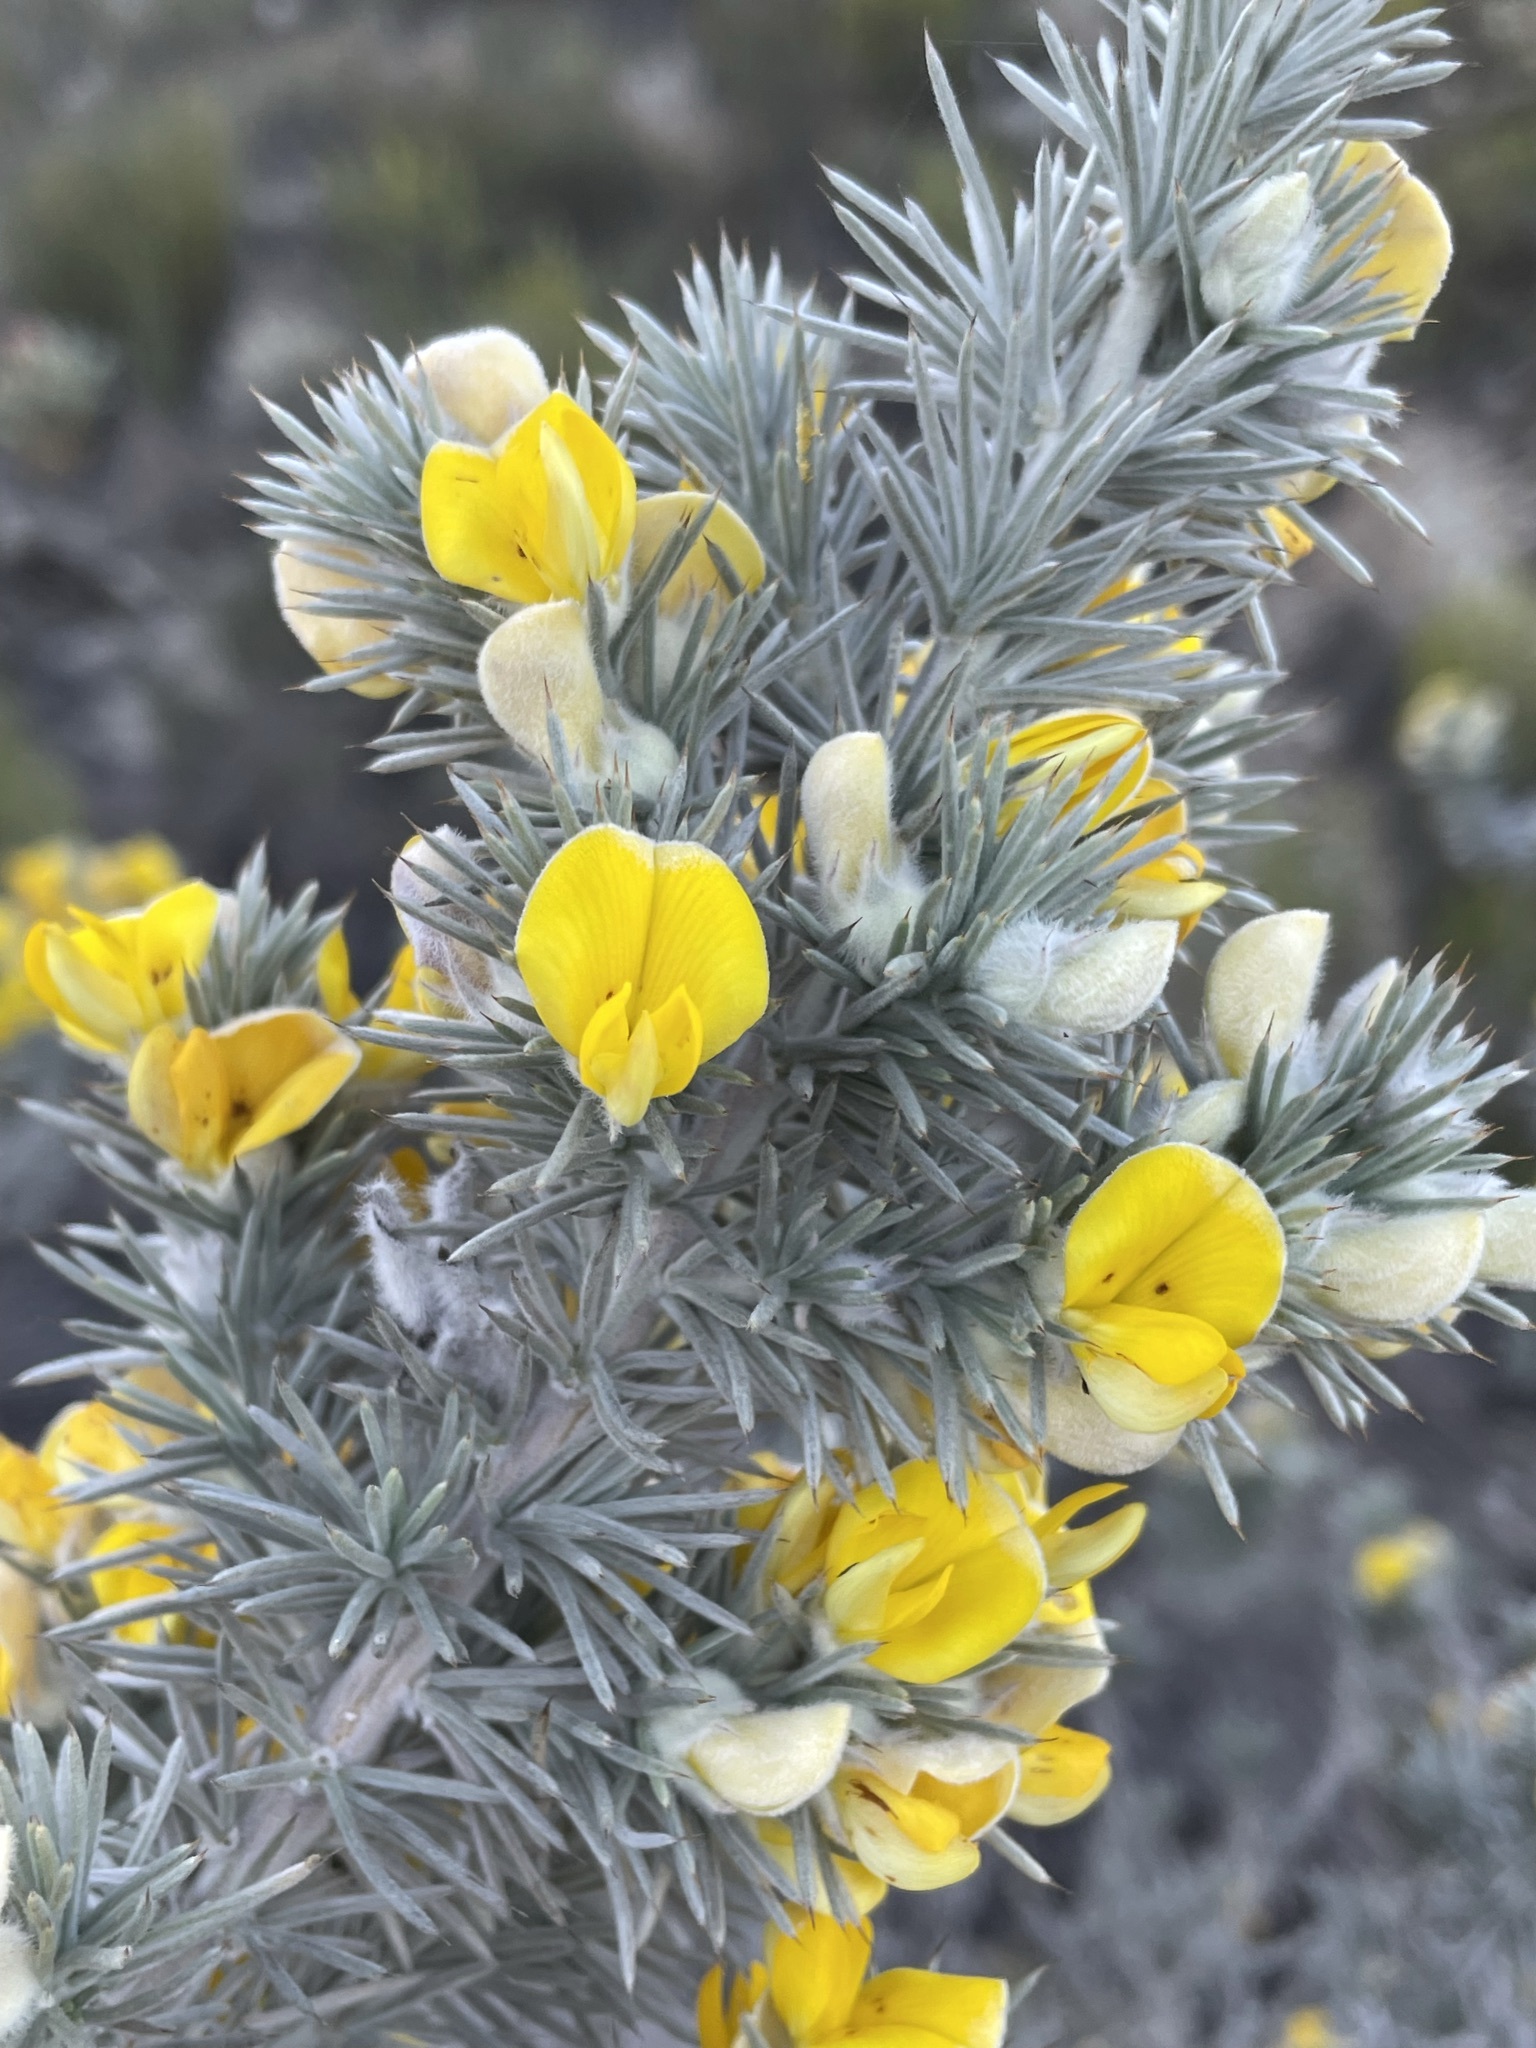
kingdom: Plantae
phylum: Tracheophyta
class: Magnoliopsida
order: Fabales
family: Fabaceae
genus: Aspalathus
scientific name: Aspalathus hystrix
